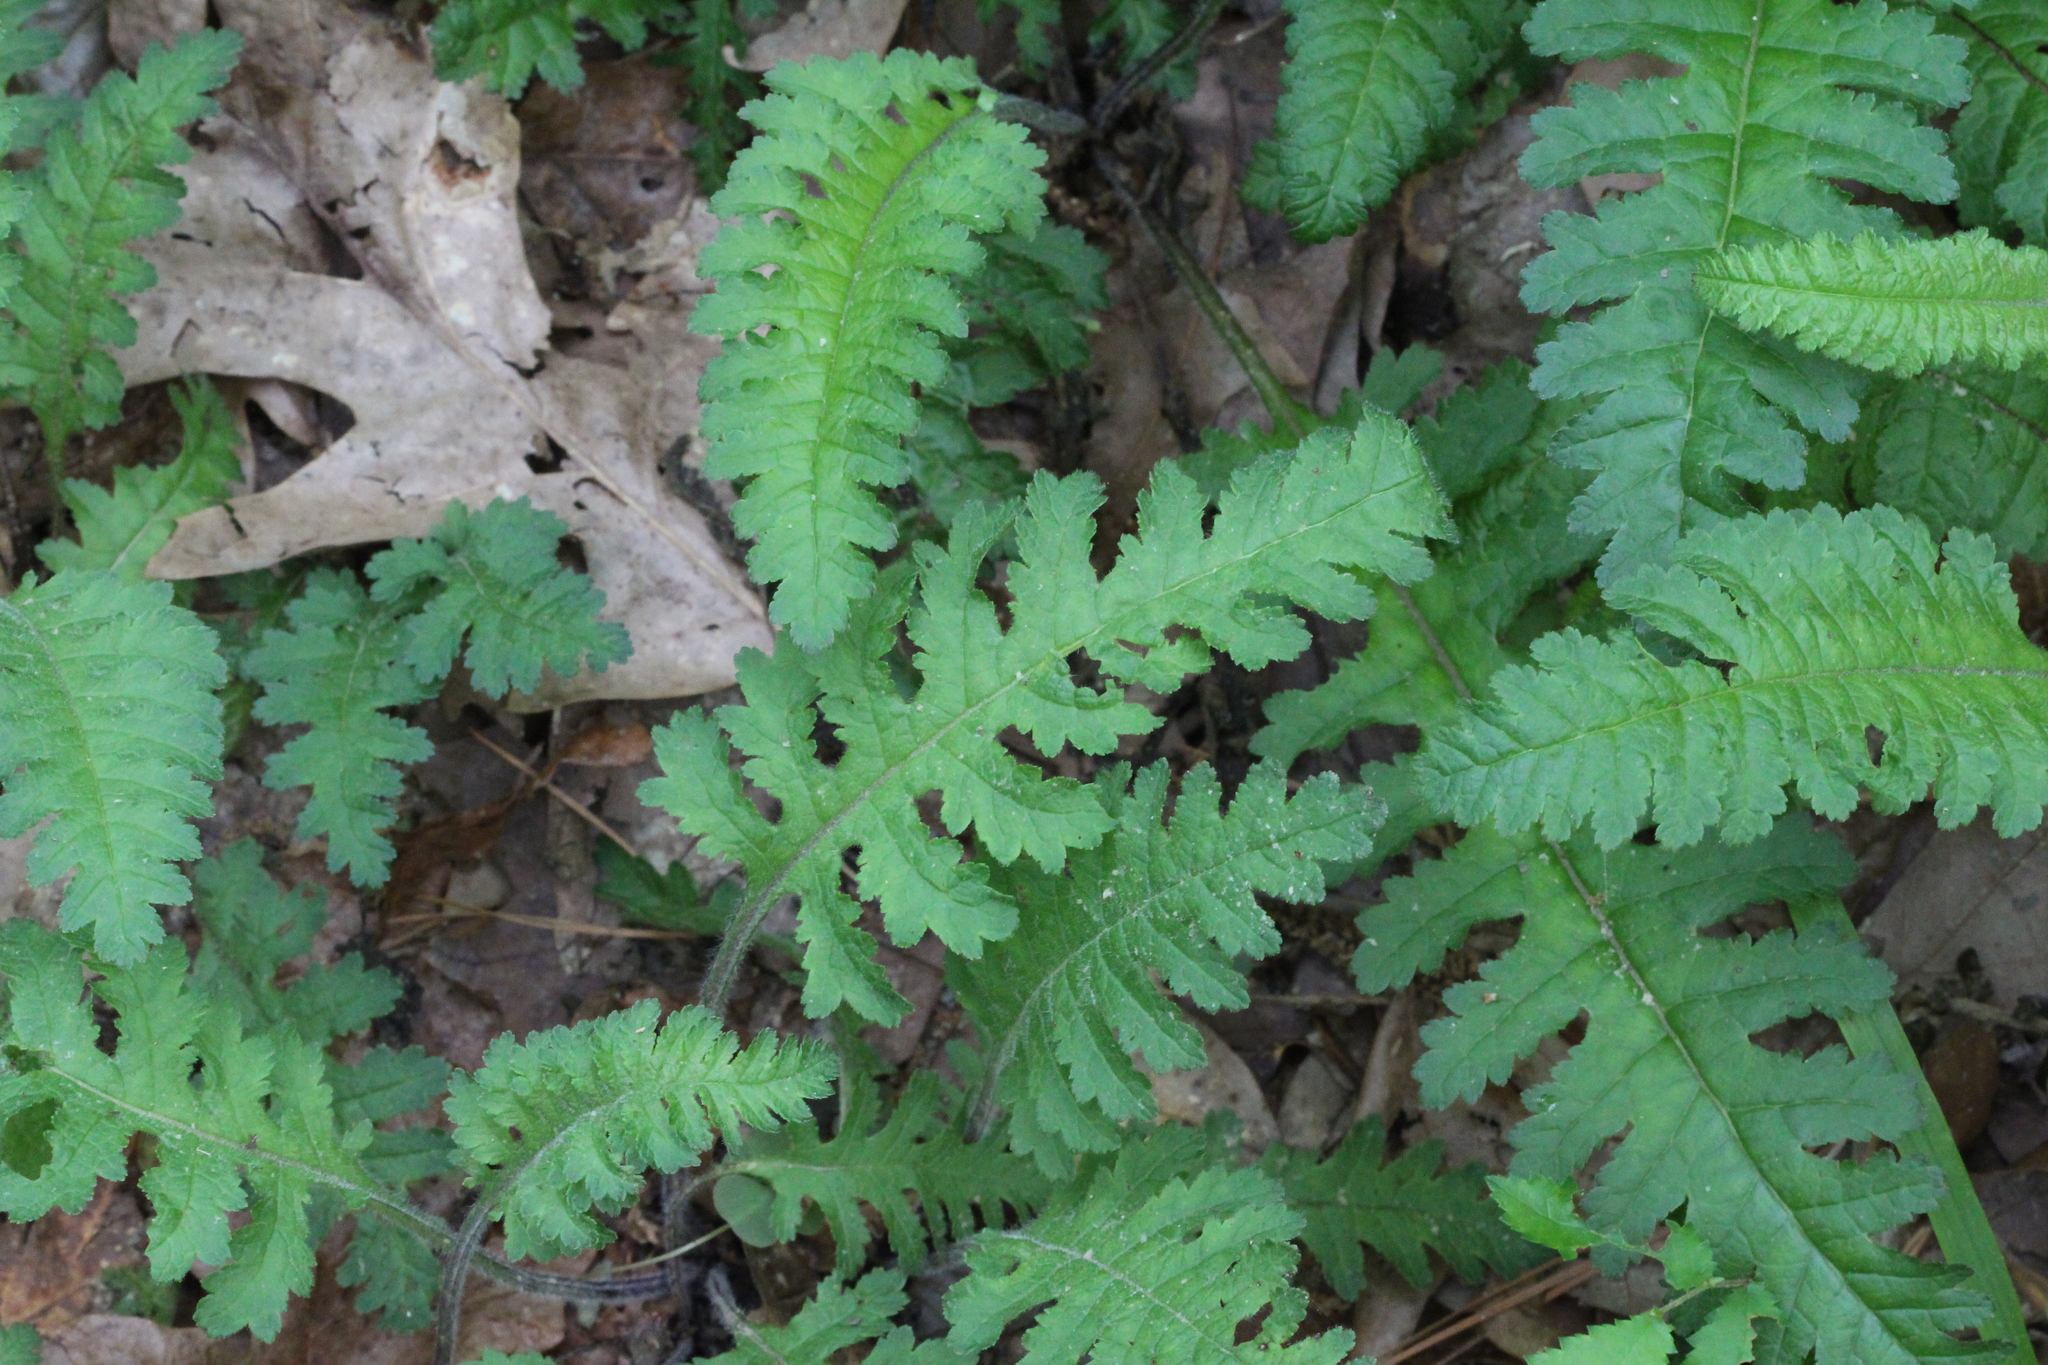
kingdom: Plantae
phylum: Tracheophyta
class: Magnoliopsida
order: Lamiales
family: Orobanchaceae
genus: Pedicularis
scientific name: Pedicularis canadensis
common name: Early lousewort
